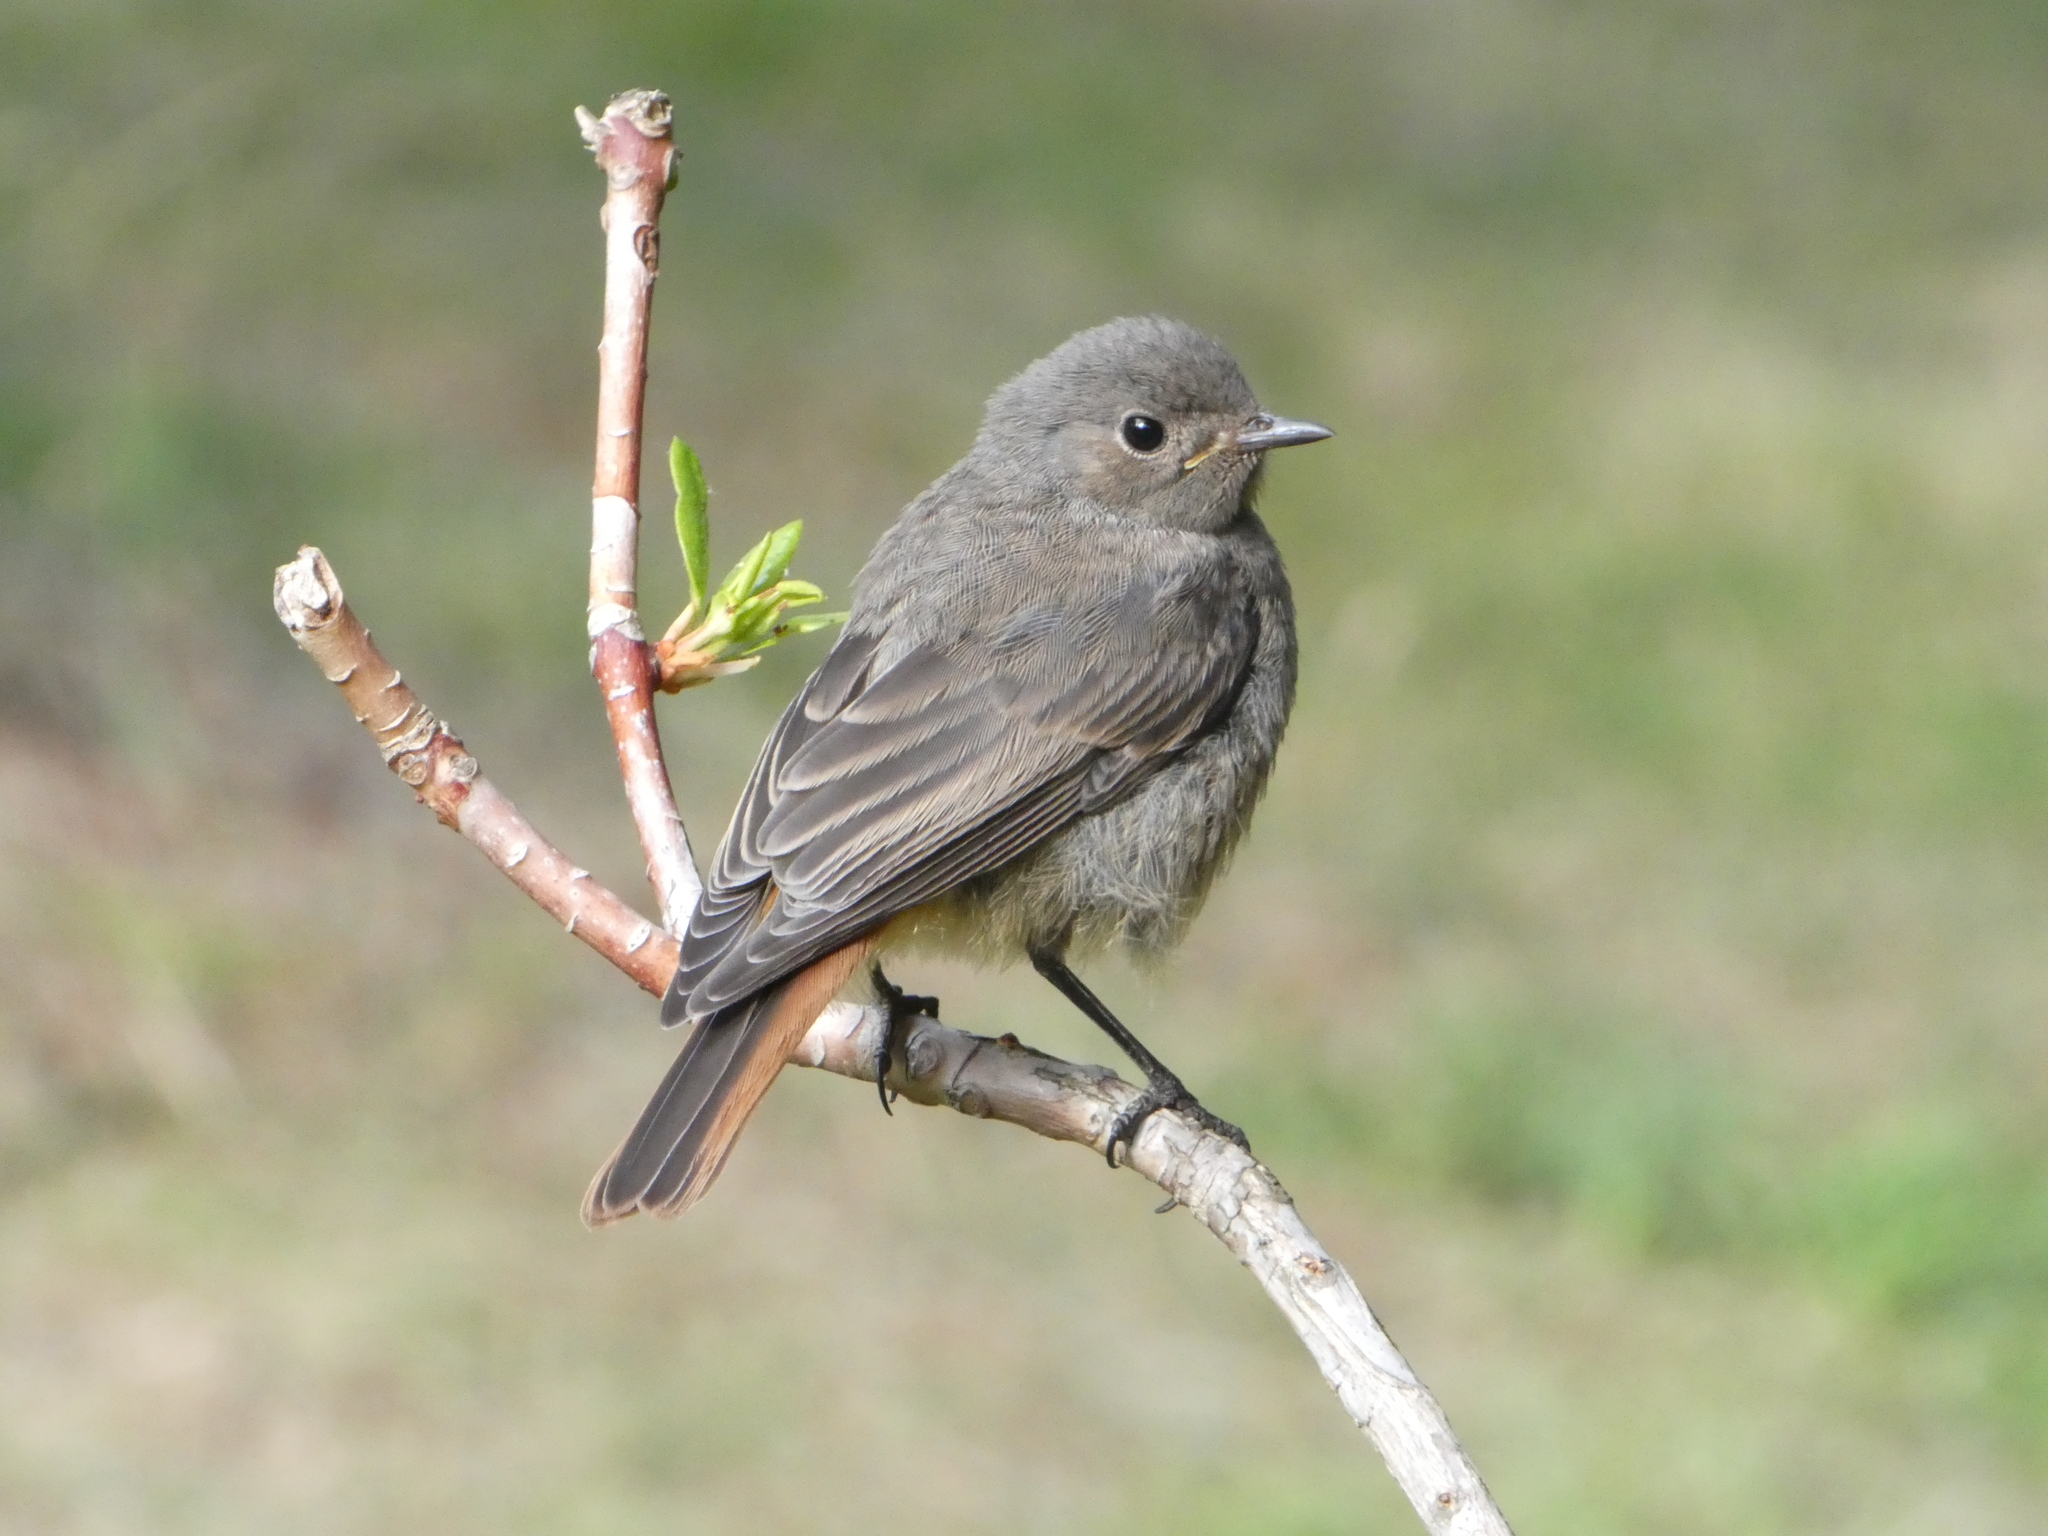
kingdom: Animalia
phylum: Chordata
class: Aves
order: Passeriformes
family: Muscicapidae
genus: Phoenicurus
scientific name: Phoenicurus ochruros
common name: Black redstart
